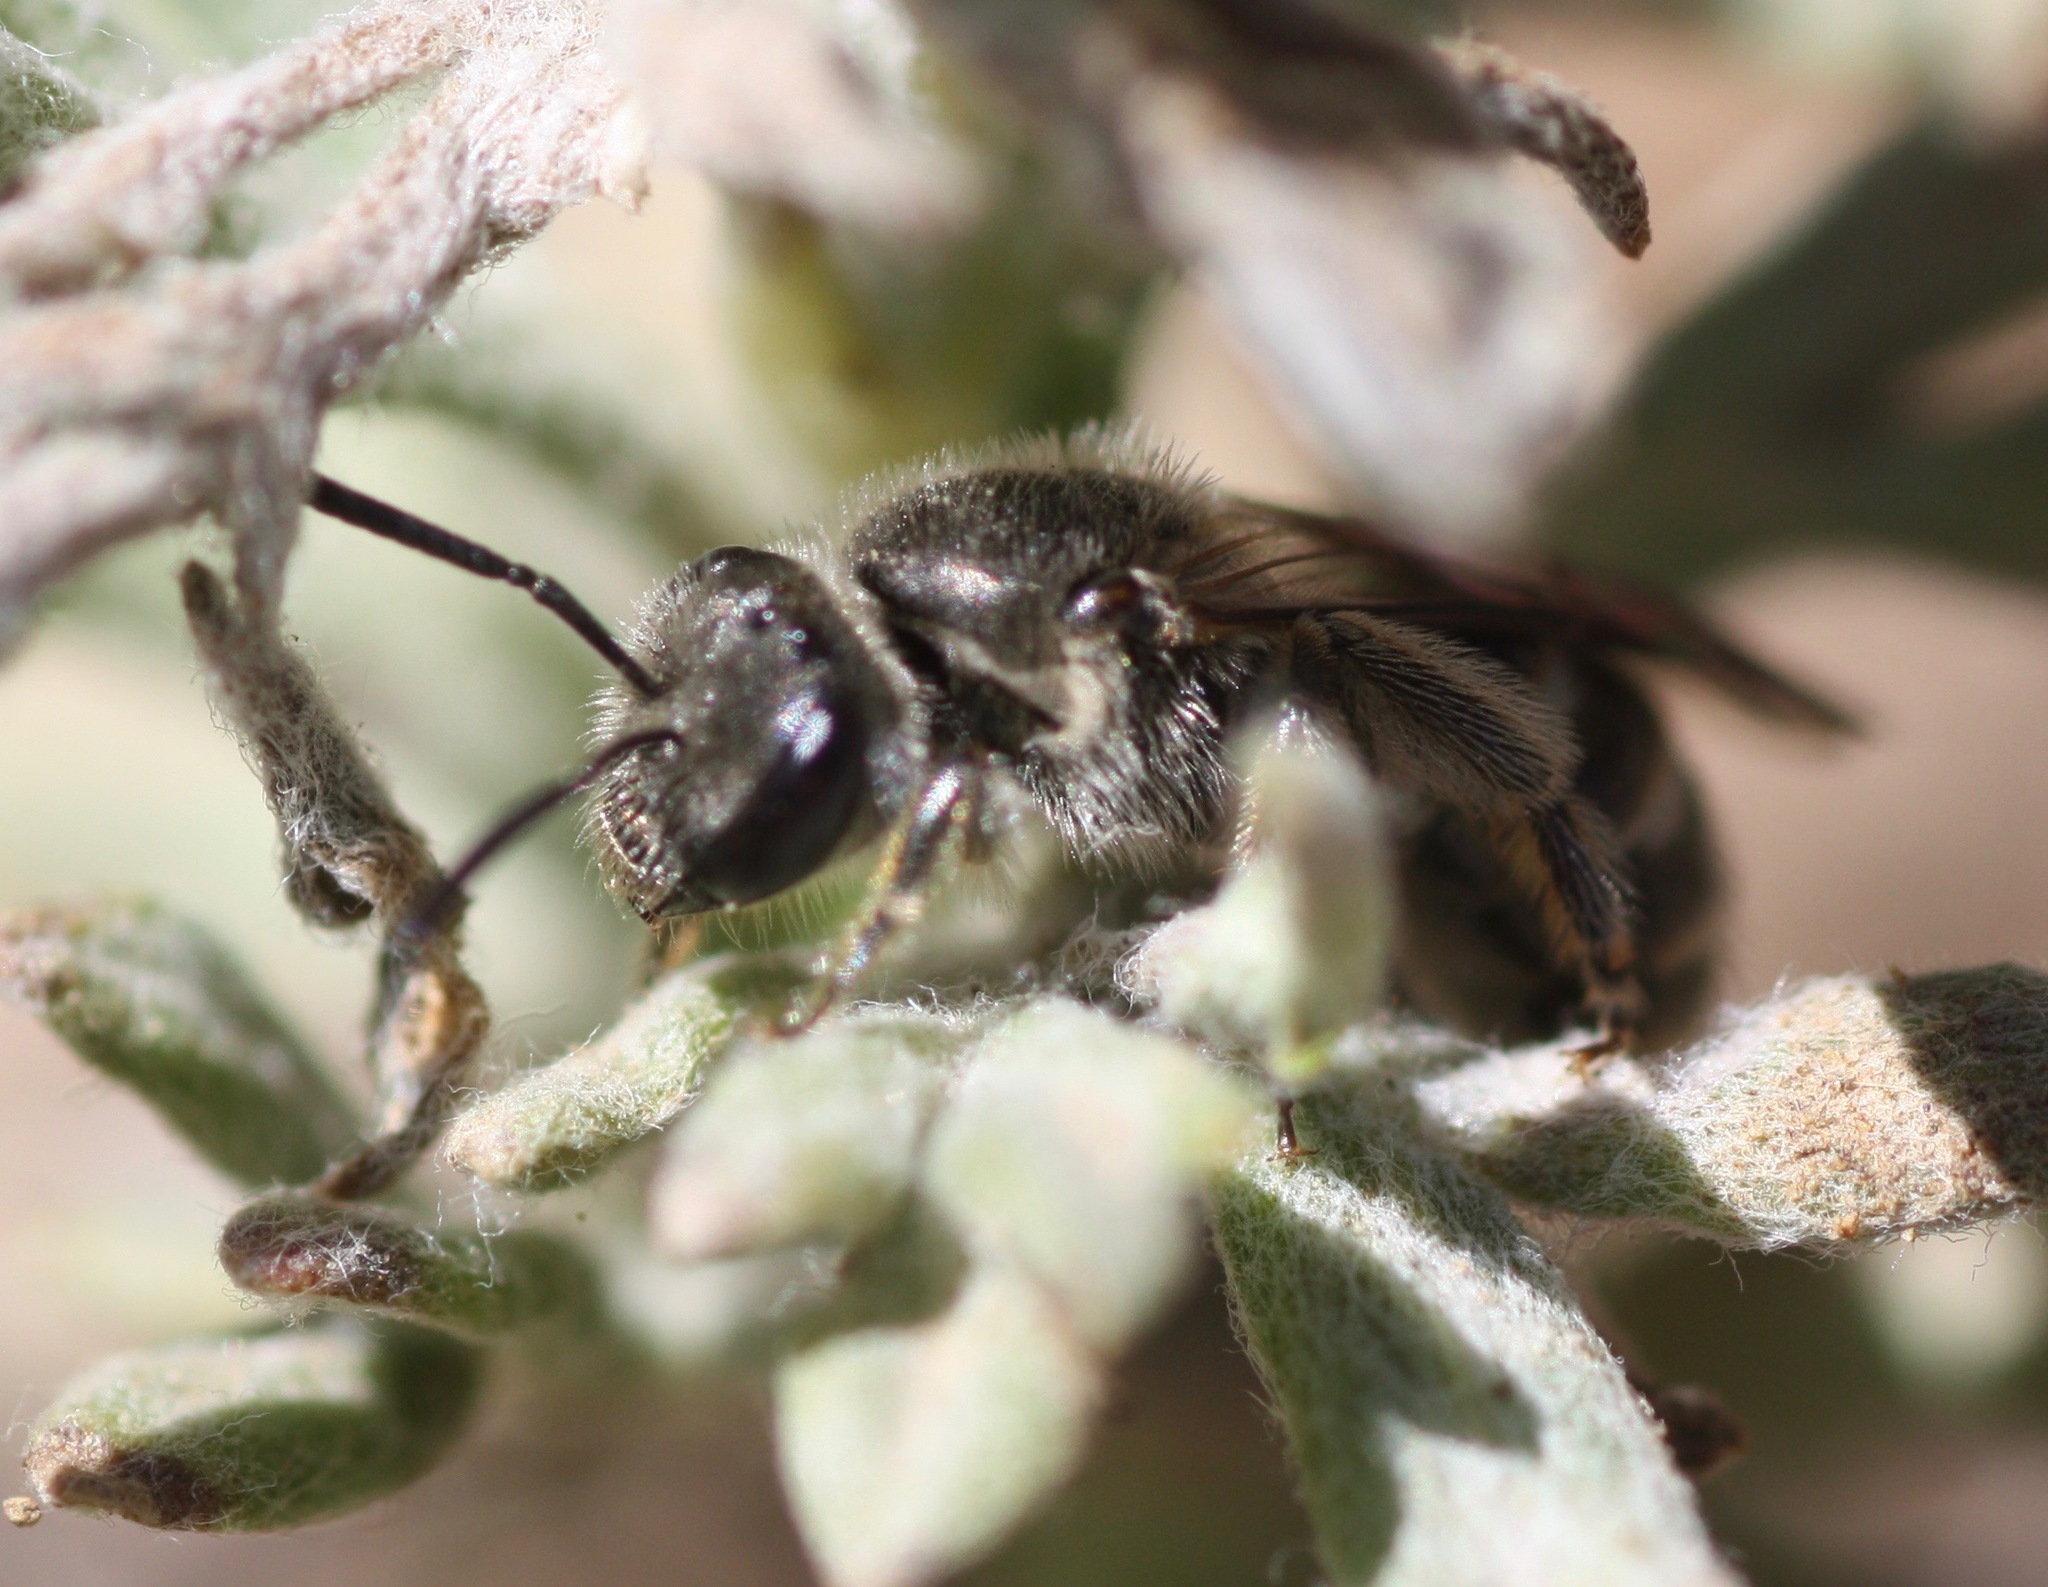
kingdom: Animalia
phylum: Arthropoda
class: Insecta
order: Hymenoptera
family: Halictidae
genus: Lasioglossum
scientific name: Lasioglossum
